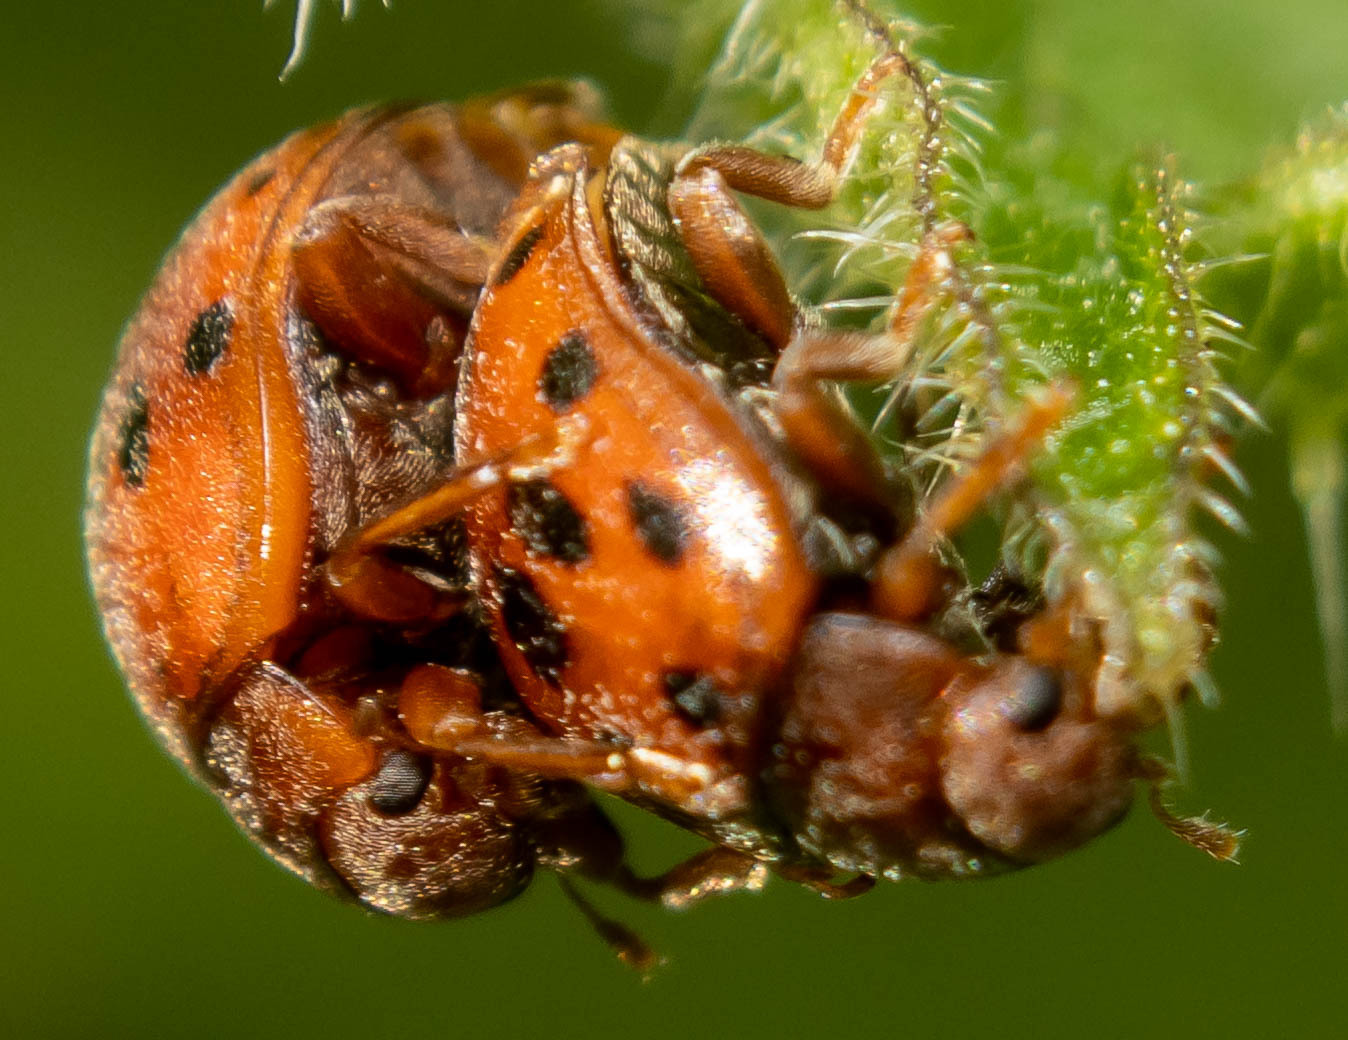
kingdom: Animalia
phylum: Arthropoda
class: Insecta
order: Coleoptera
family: Coccinellidae
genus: Subcoccinella
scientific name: Subcoccinella vigintiquatuorpunctata
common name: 24-spot ladybird
